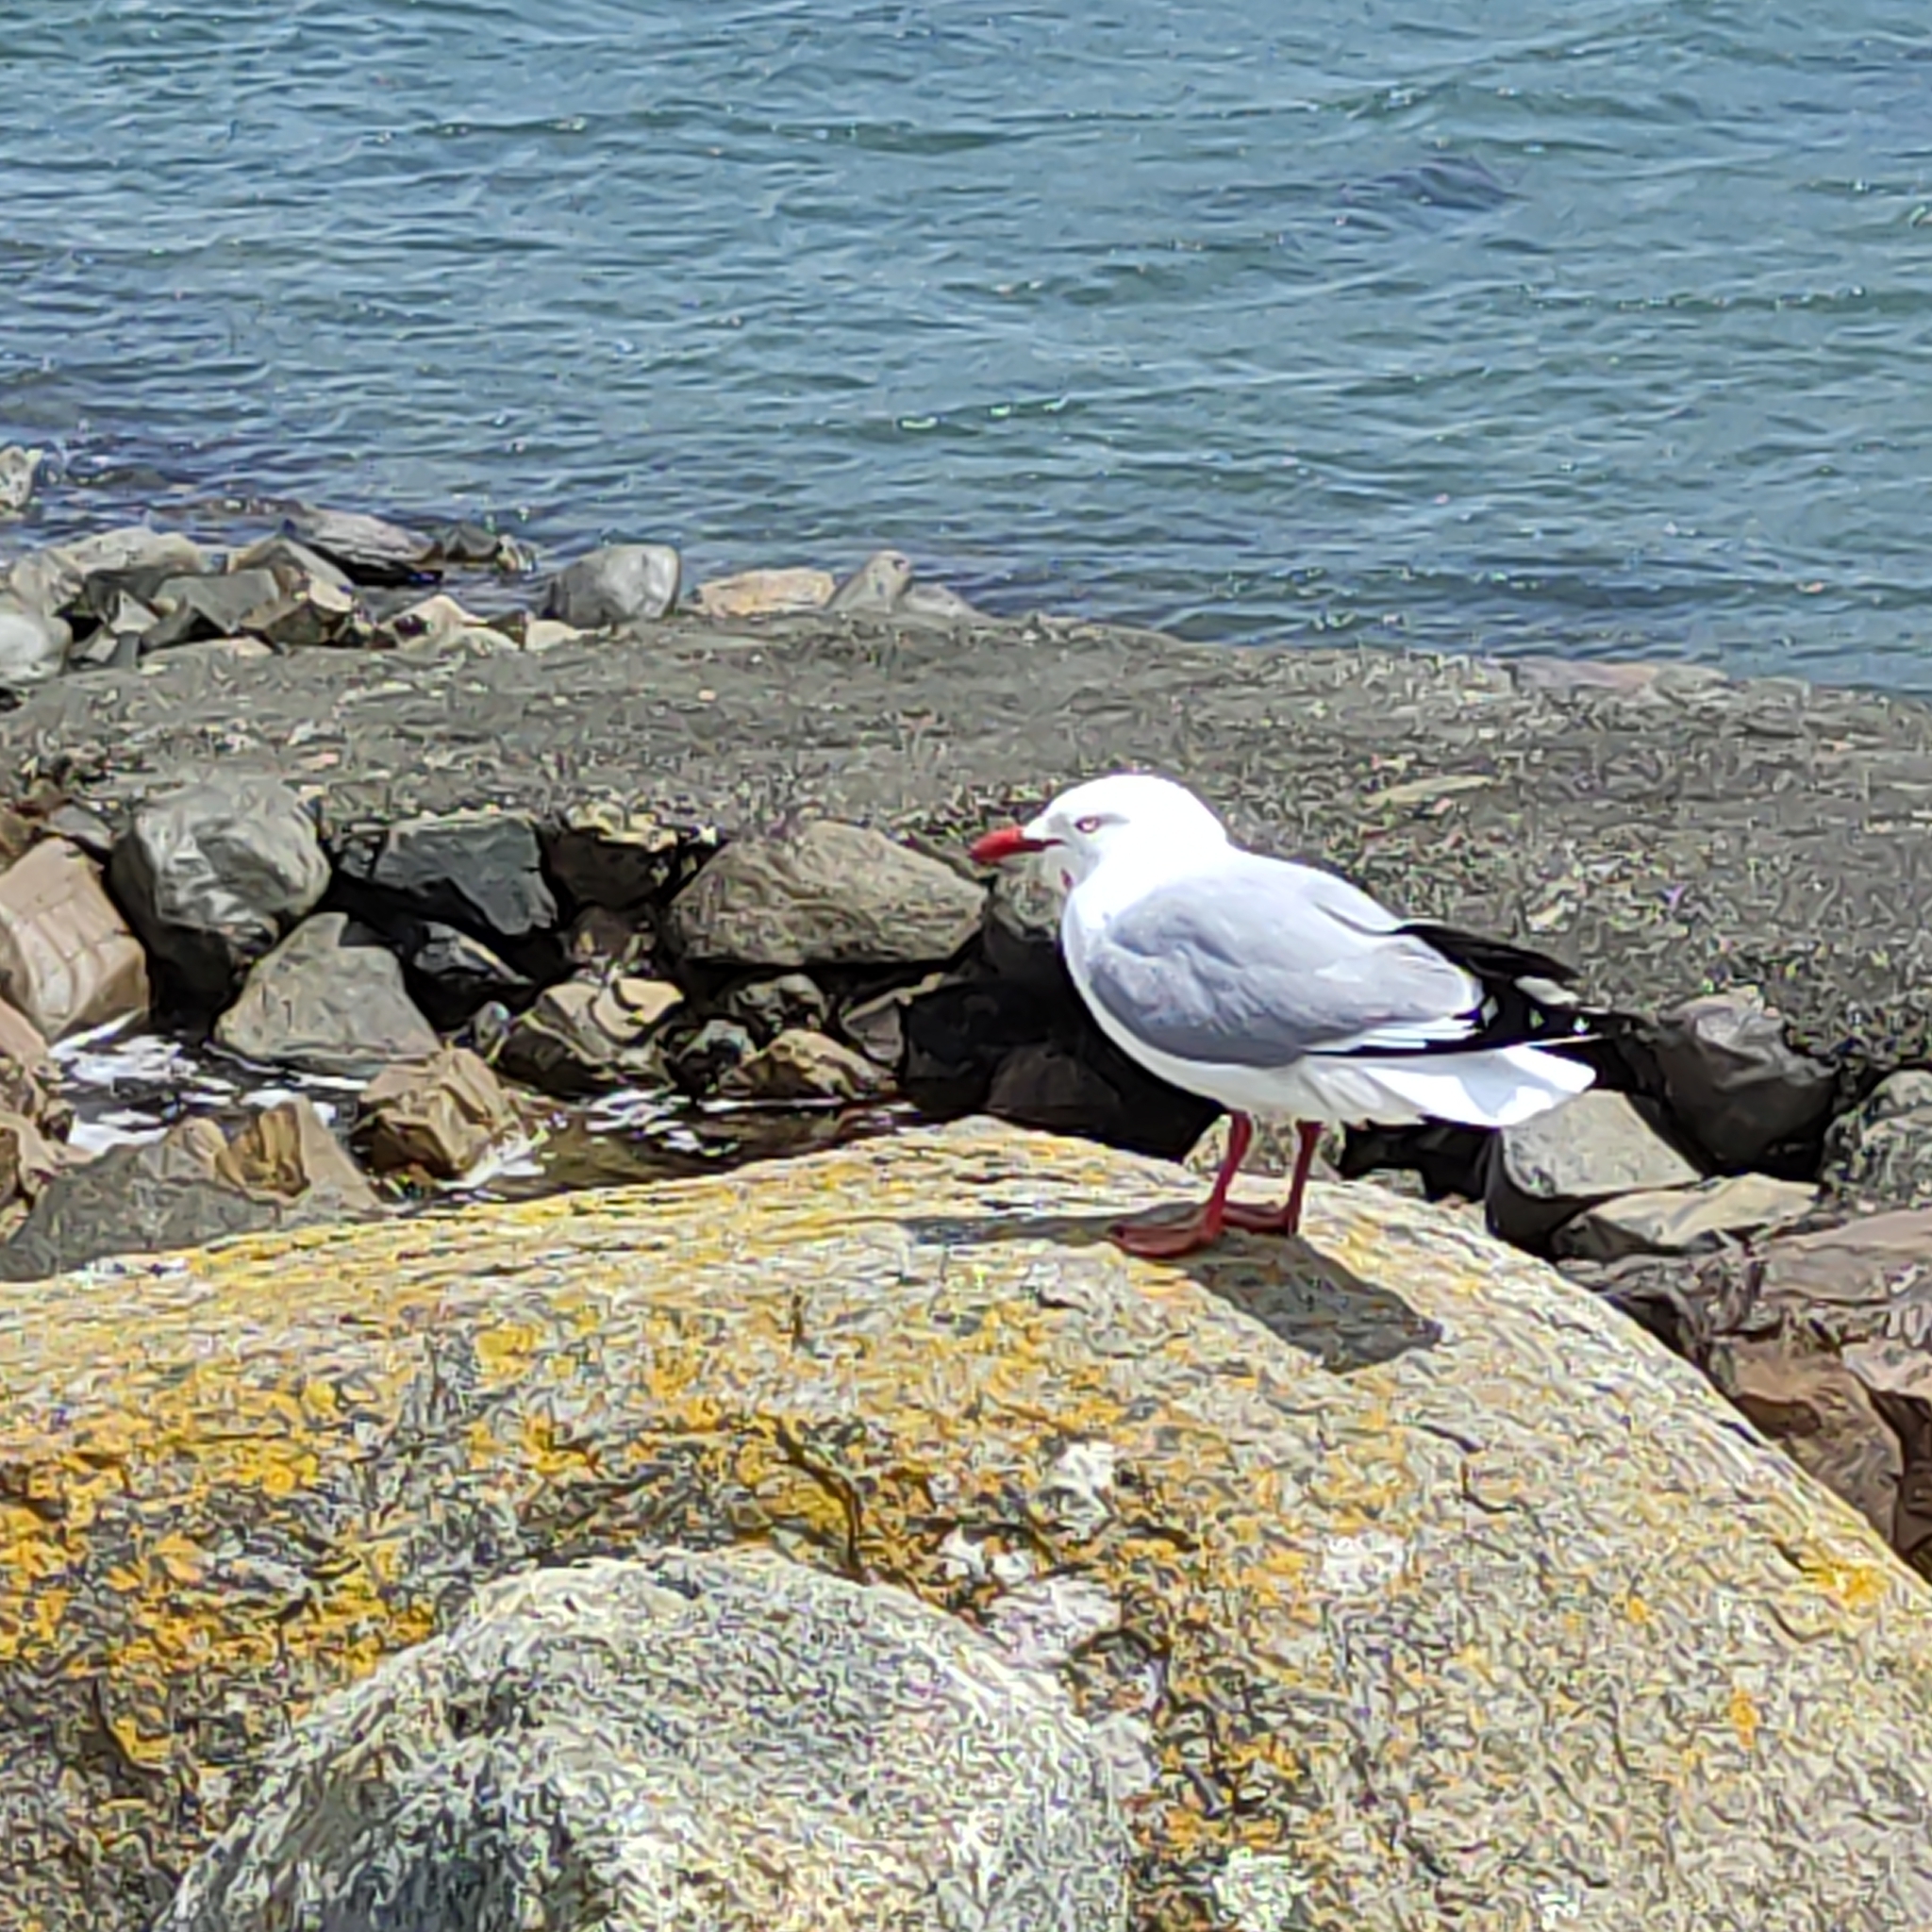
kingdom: Animalia
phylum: Chordata
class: Aves
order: Charadriiformes
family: Laridae
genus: Chroicocephalus
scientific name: Chroicocephalus novaehollandiae
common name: Silver gull
